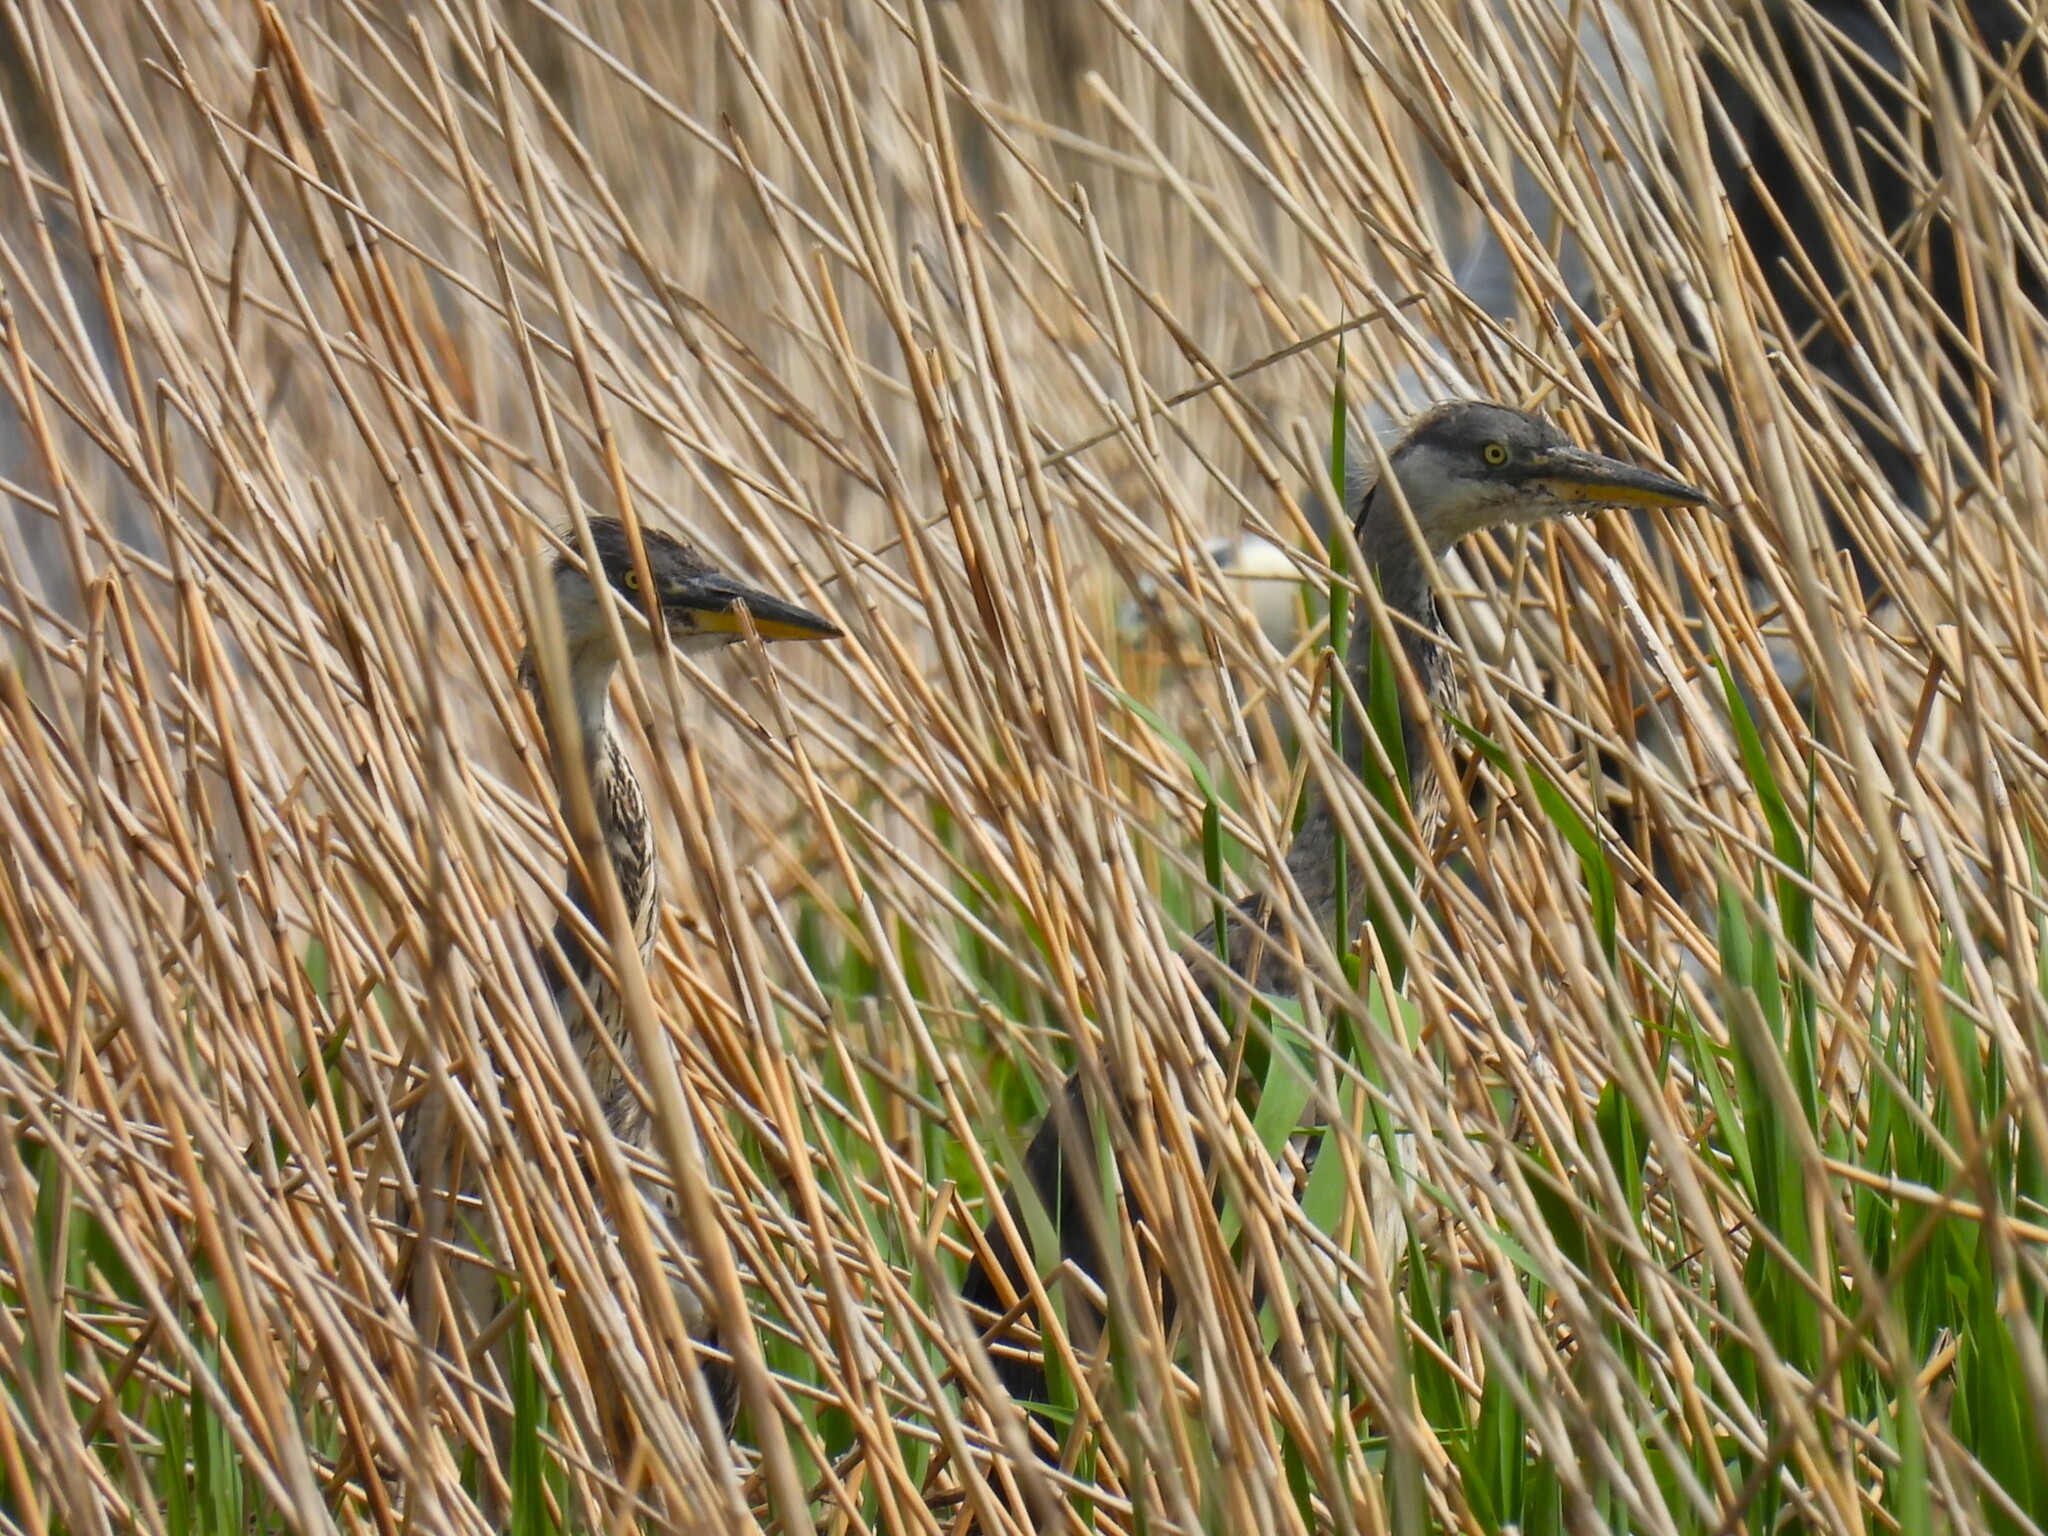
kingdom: Animalia
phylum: Chordata
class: Aves
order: Pelecaniformes
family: Ardeidae
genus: Ardea
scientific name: Ardea cinerea
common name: Grey heron
